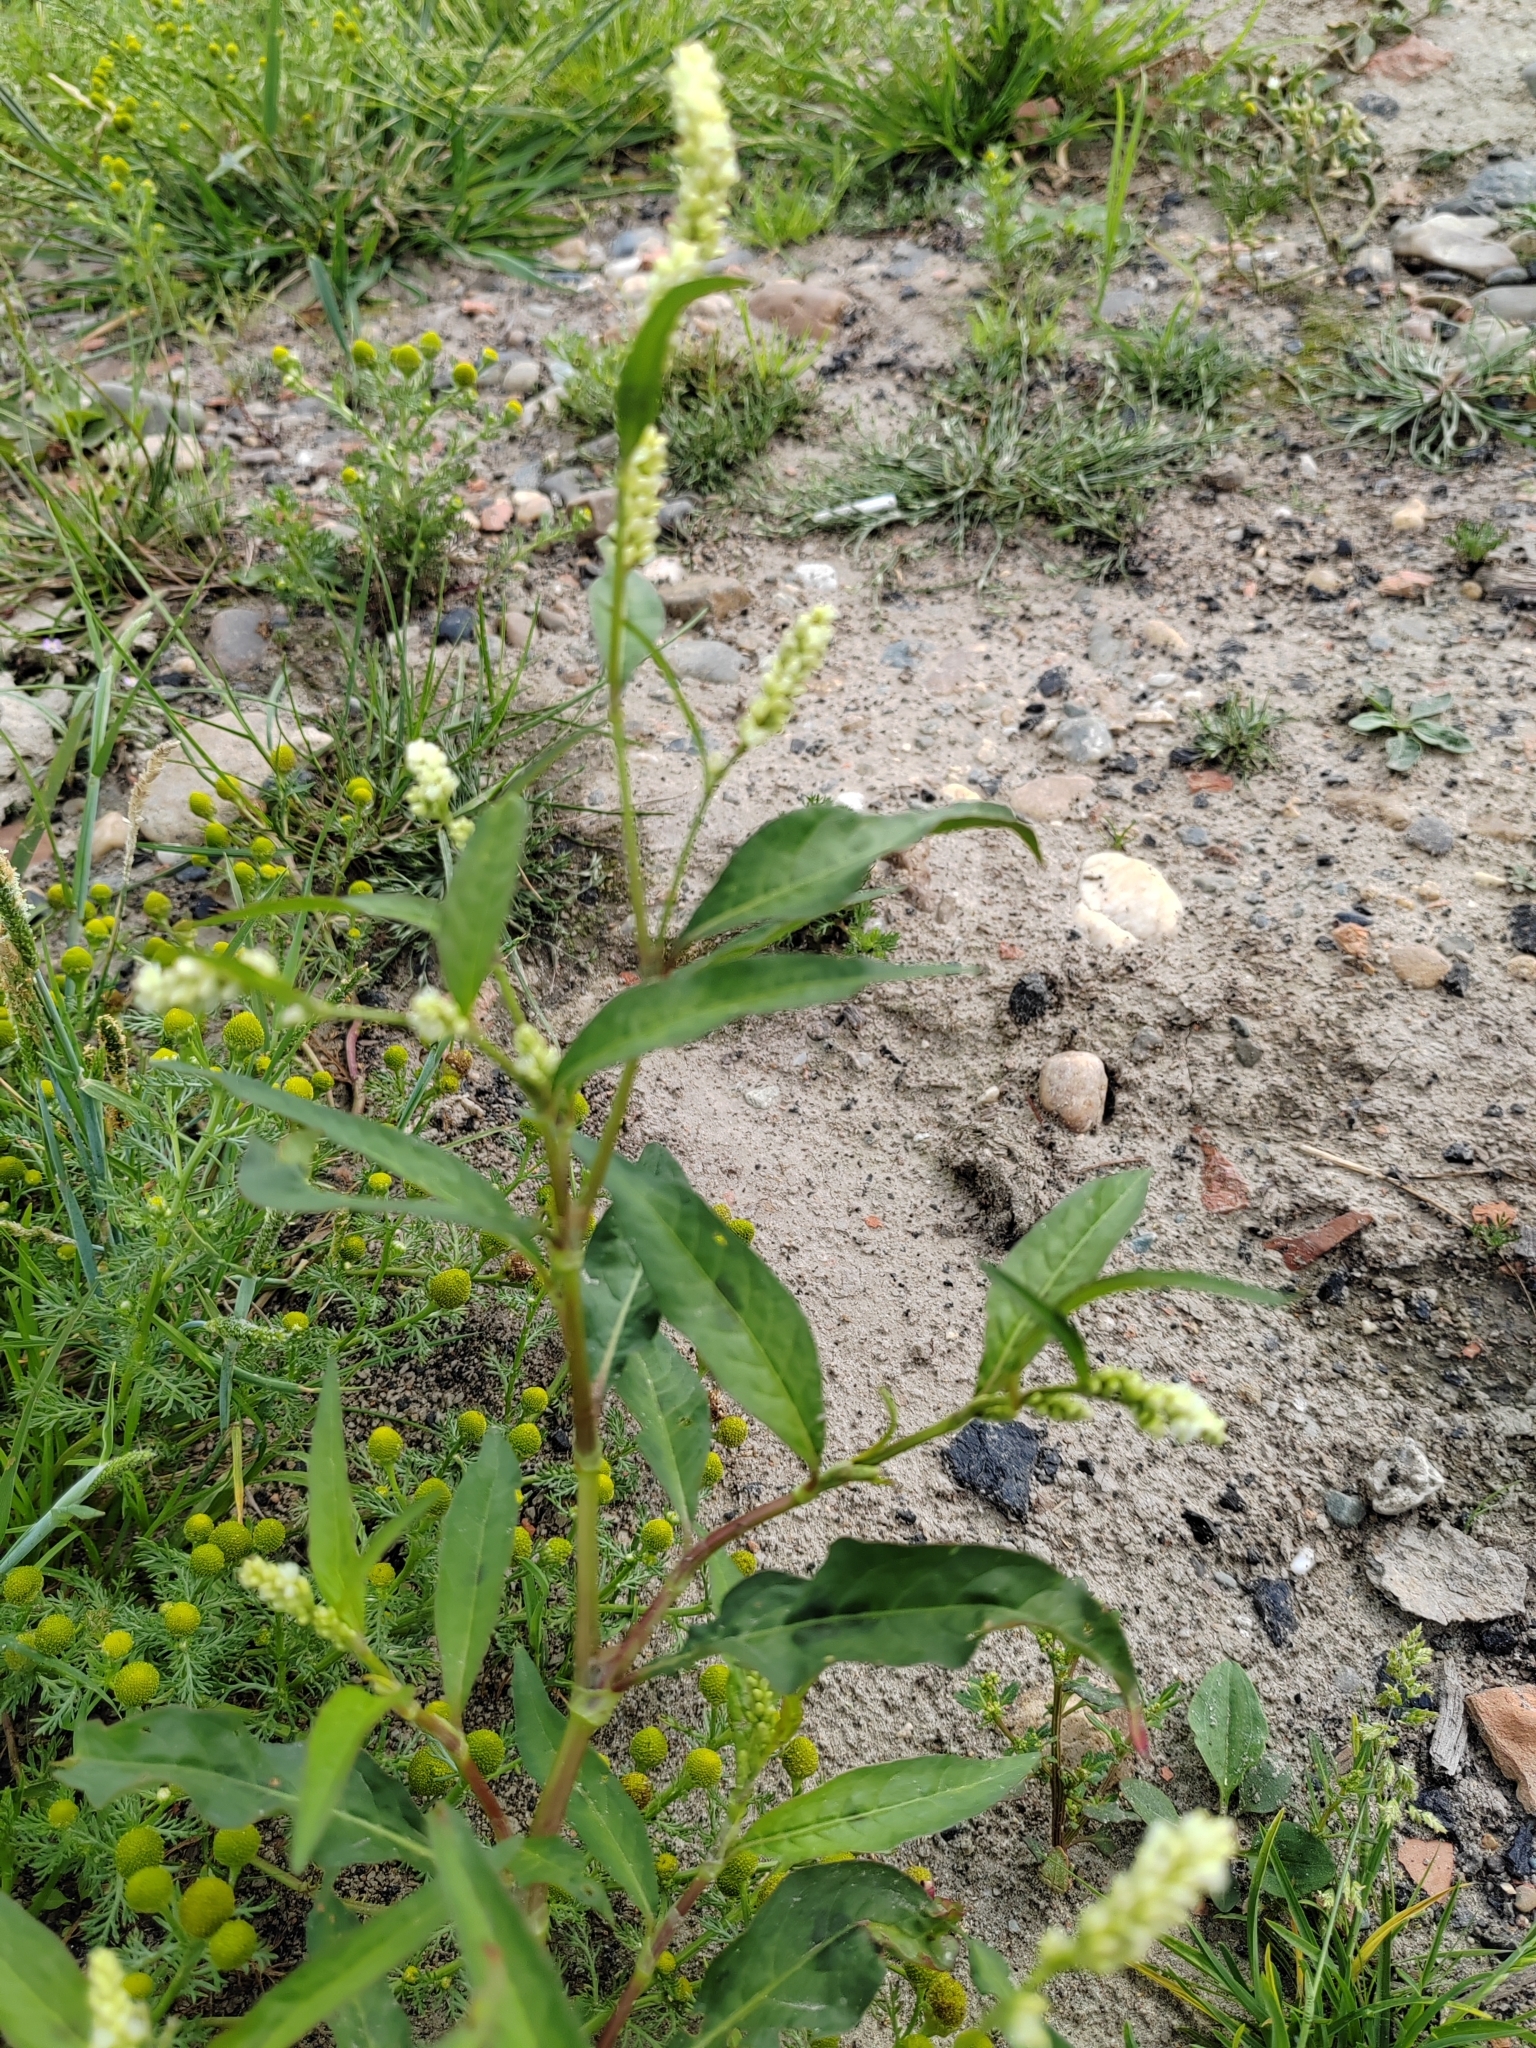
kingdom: Plantae
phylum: Tracheophyta
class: Magnoliopsida
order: Caryophyllales
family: Polygonaceae
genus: Persicaria
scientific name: Persicaria lapathifolia
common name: Curlytop knotweed
